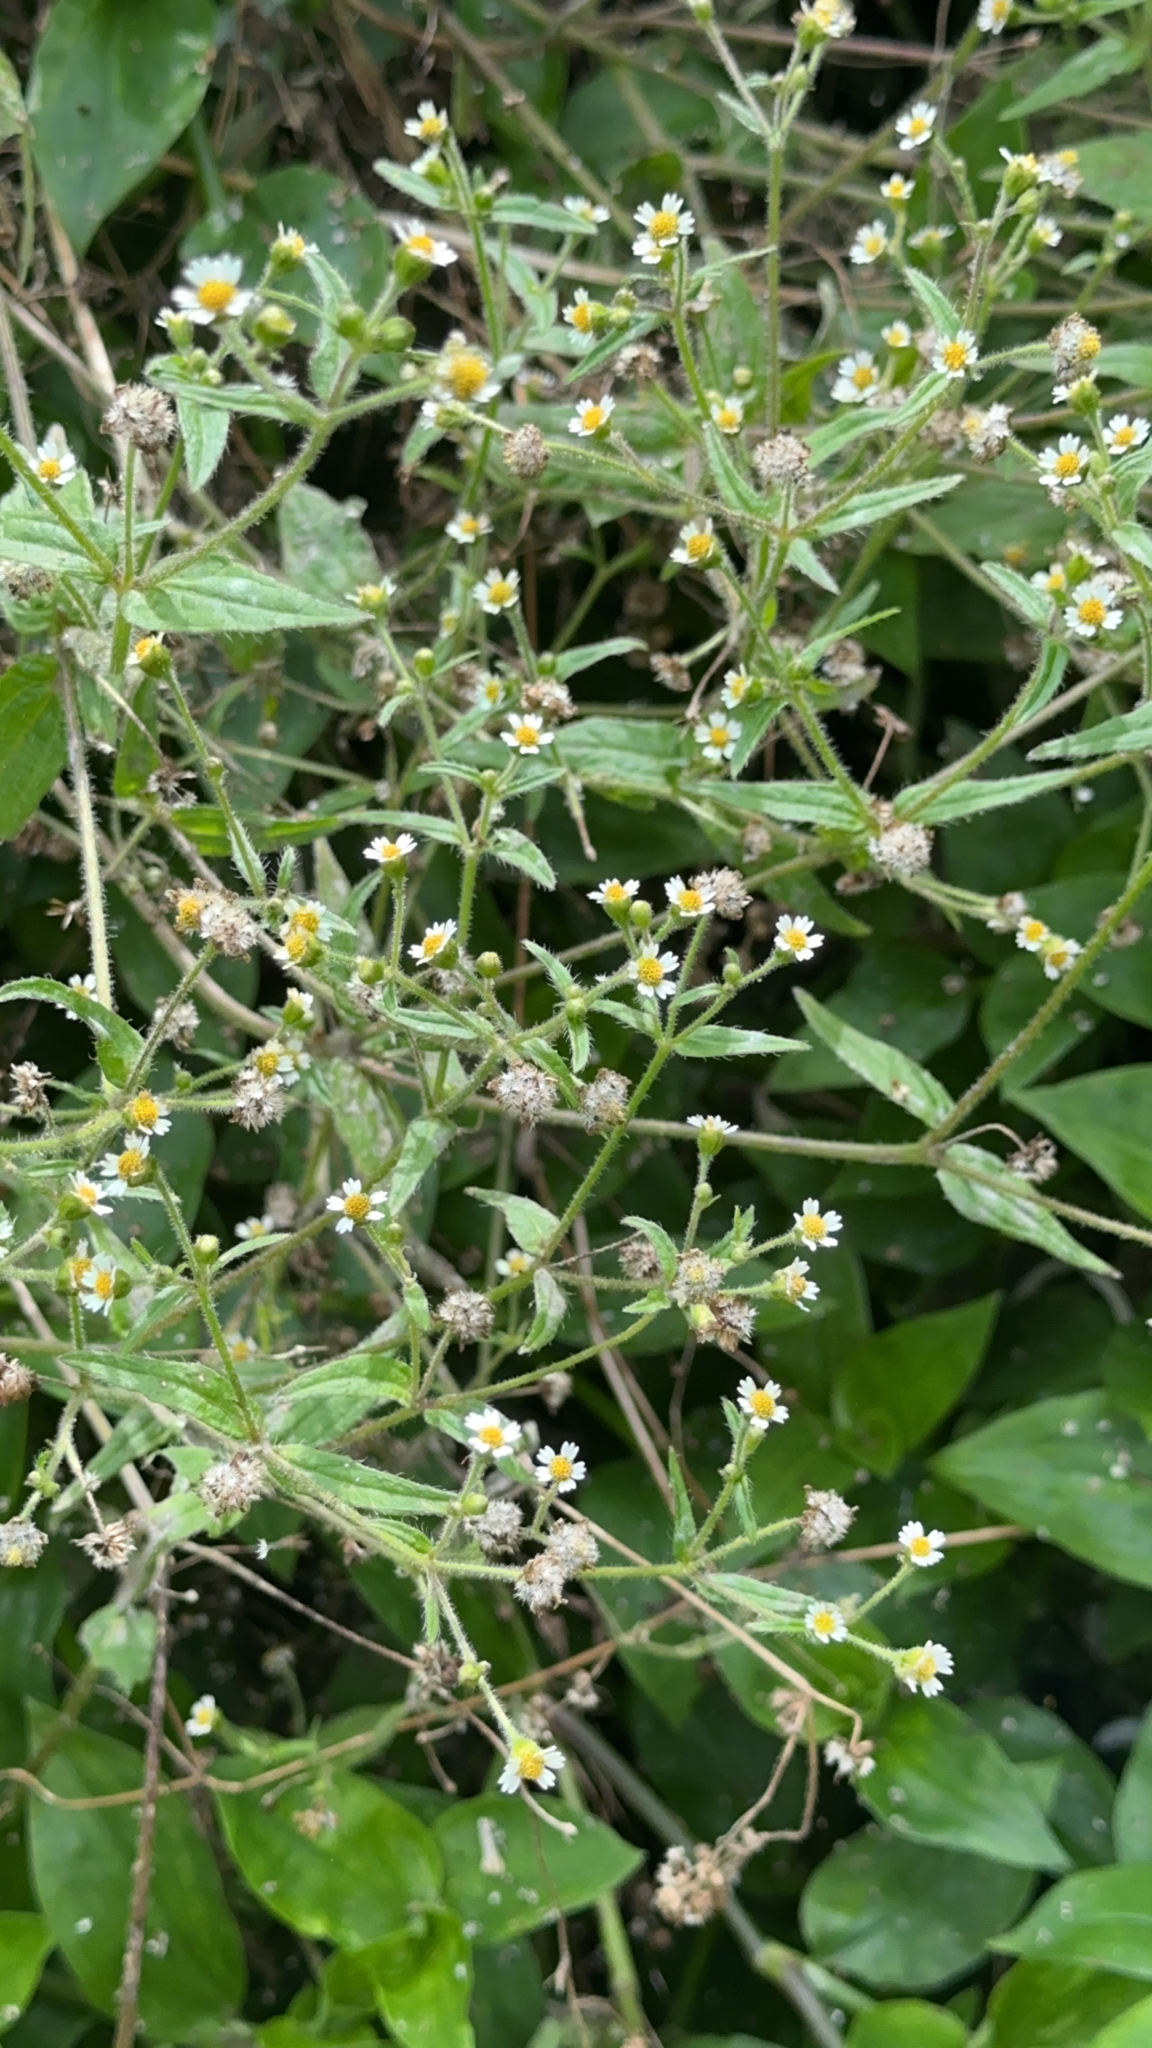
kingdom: Plantae
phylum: Tracheophyta
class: Magnoliopsida
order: Asterales
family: Asteraceae
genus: Galinsoga
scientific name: Galinsoga quadriradiata
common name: Shaggy soldier
